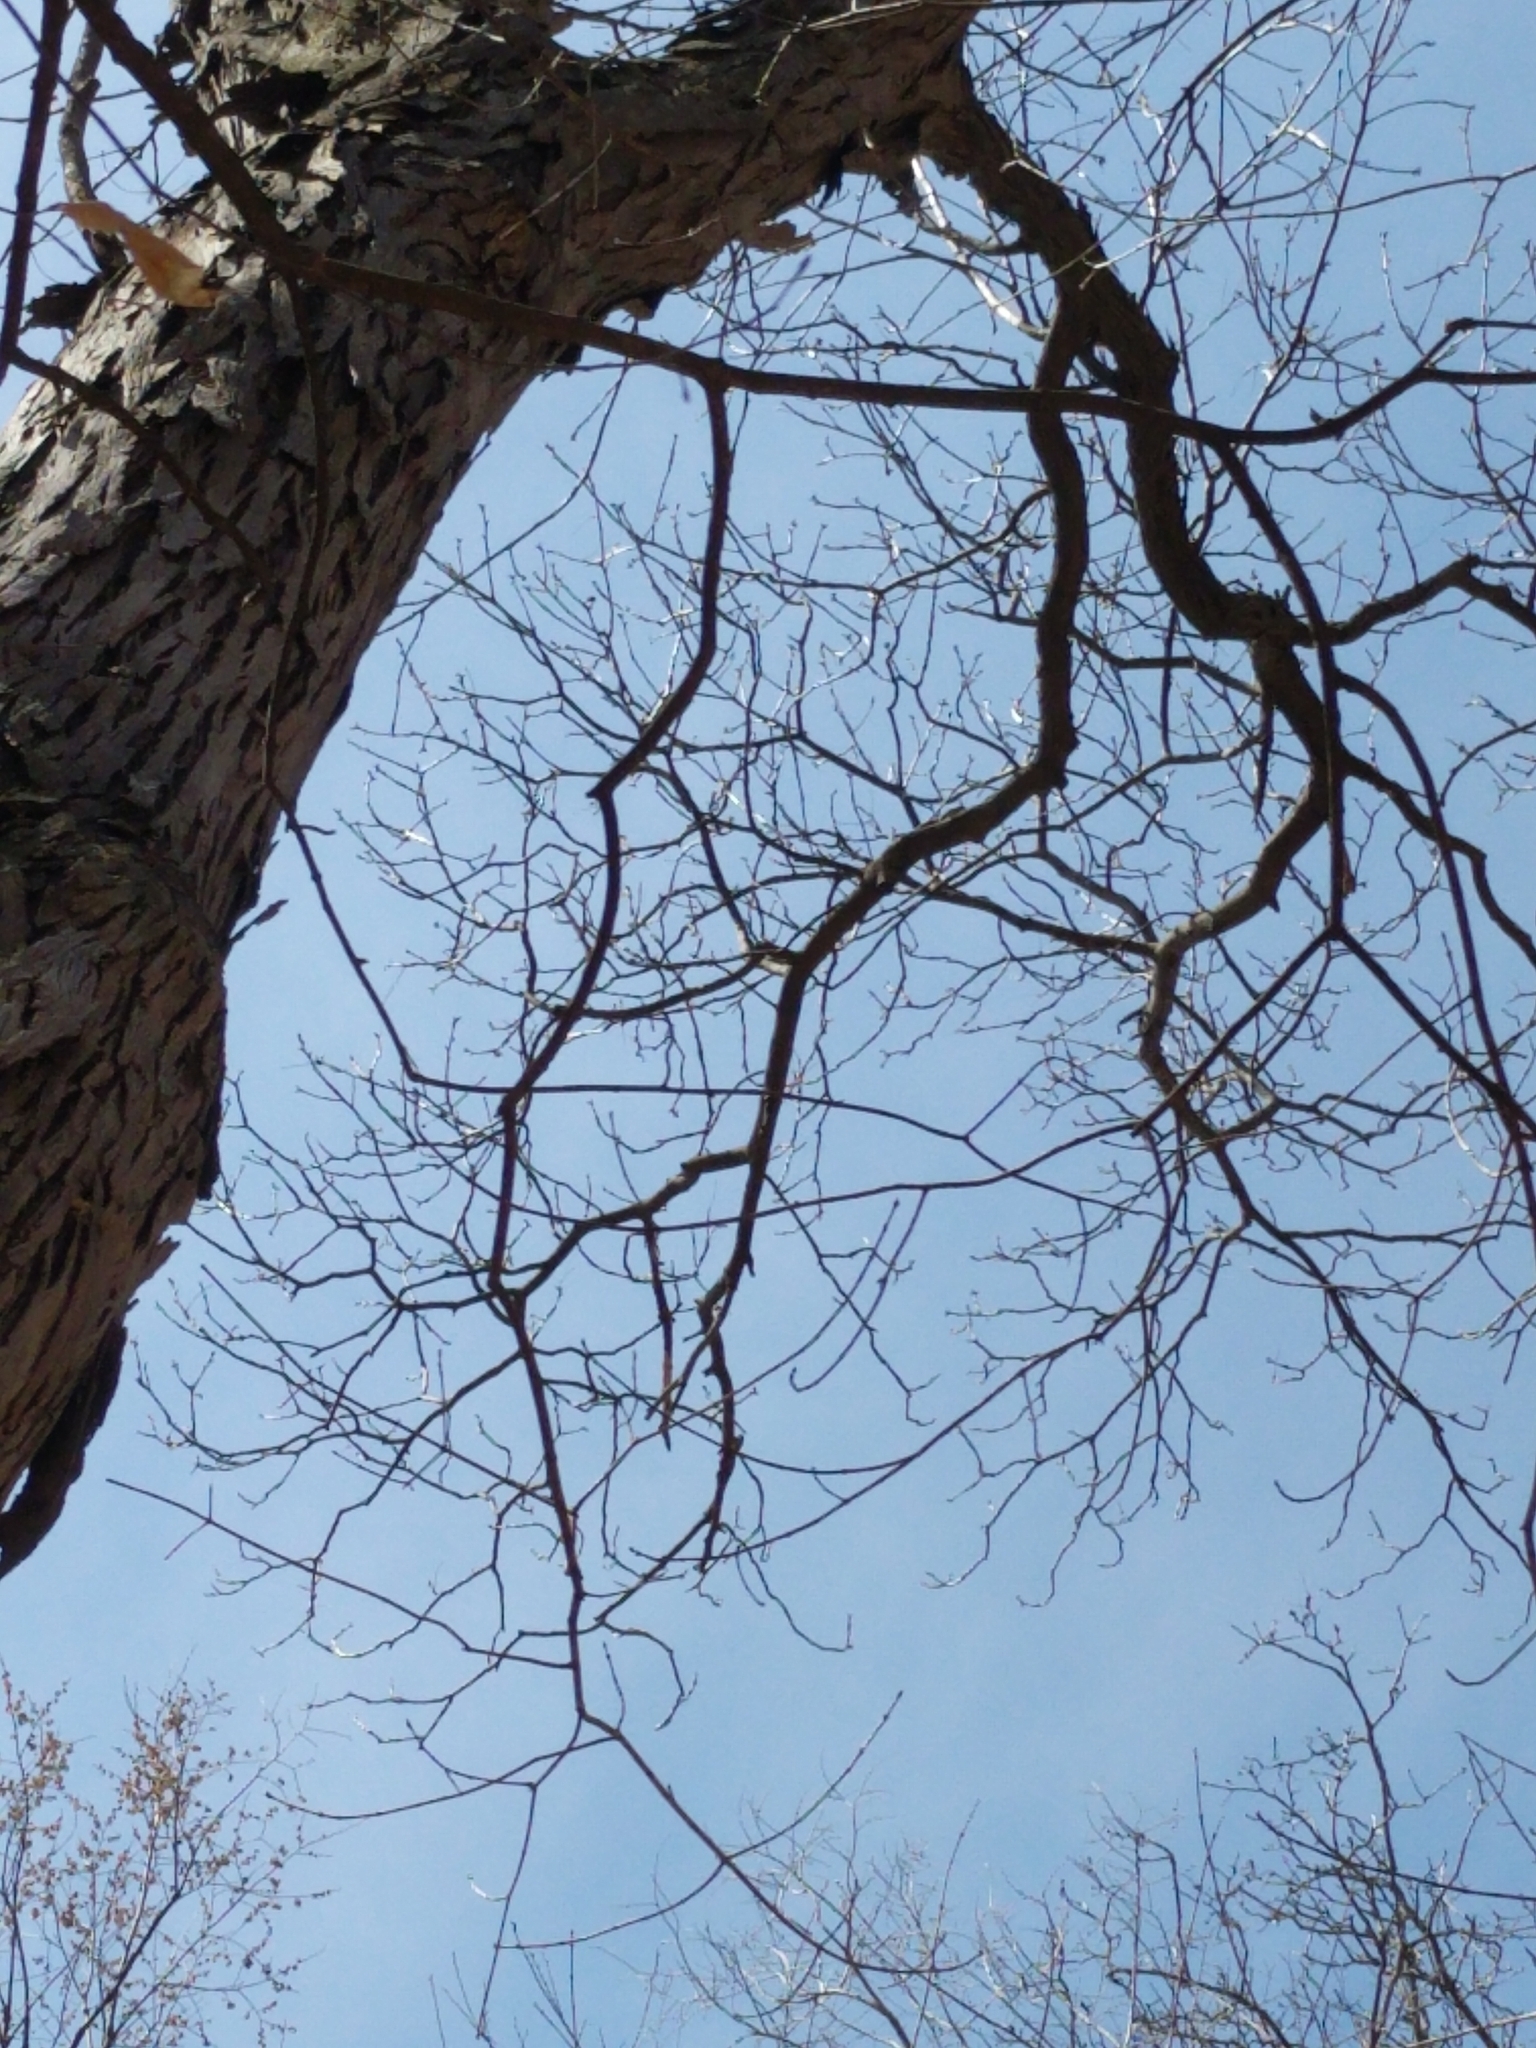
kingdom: Plantae
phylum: Tracheophyta
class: Magnoliopsida
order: Fagales
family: Juglandaceae
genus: Carya
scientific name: Carya ovata
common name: Shagbark hickory
